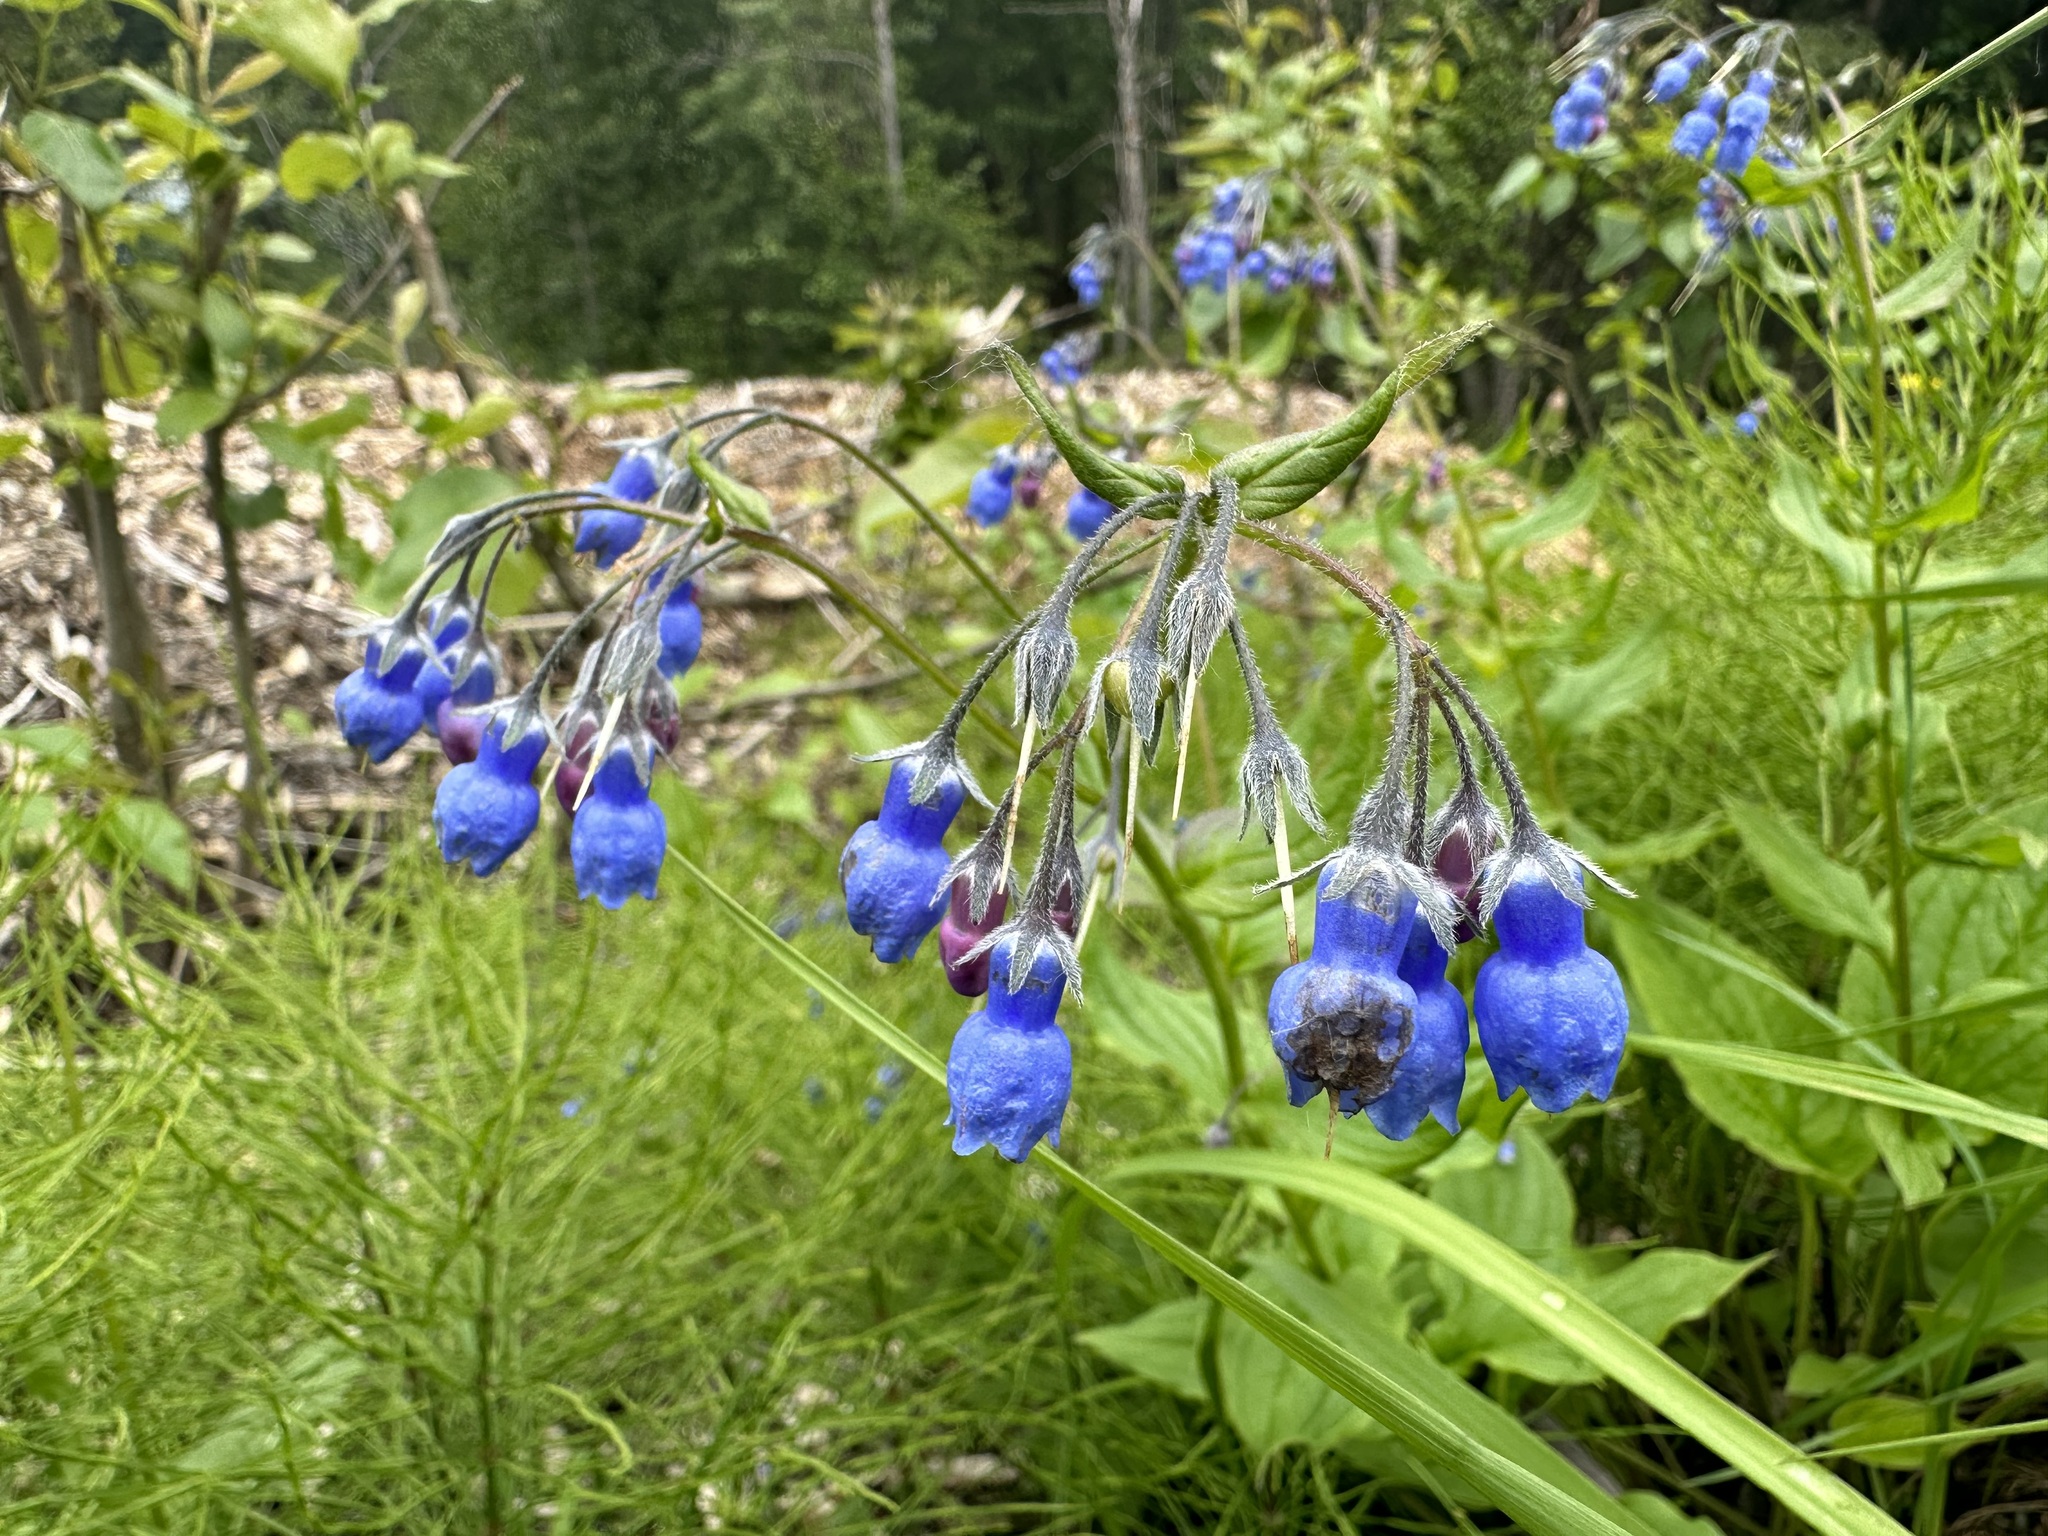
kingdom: Plantae
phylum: Tracheophyta
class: Magnoliopsida
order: Boraginales
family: Boraginaceae
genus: Mertensia
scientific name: Mertensia paniculata
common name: Panicled bluebells
